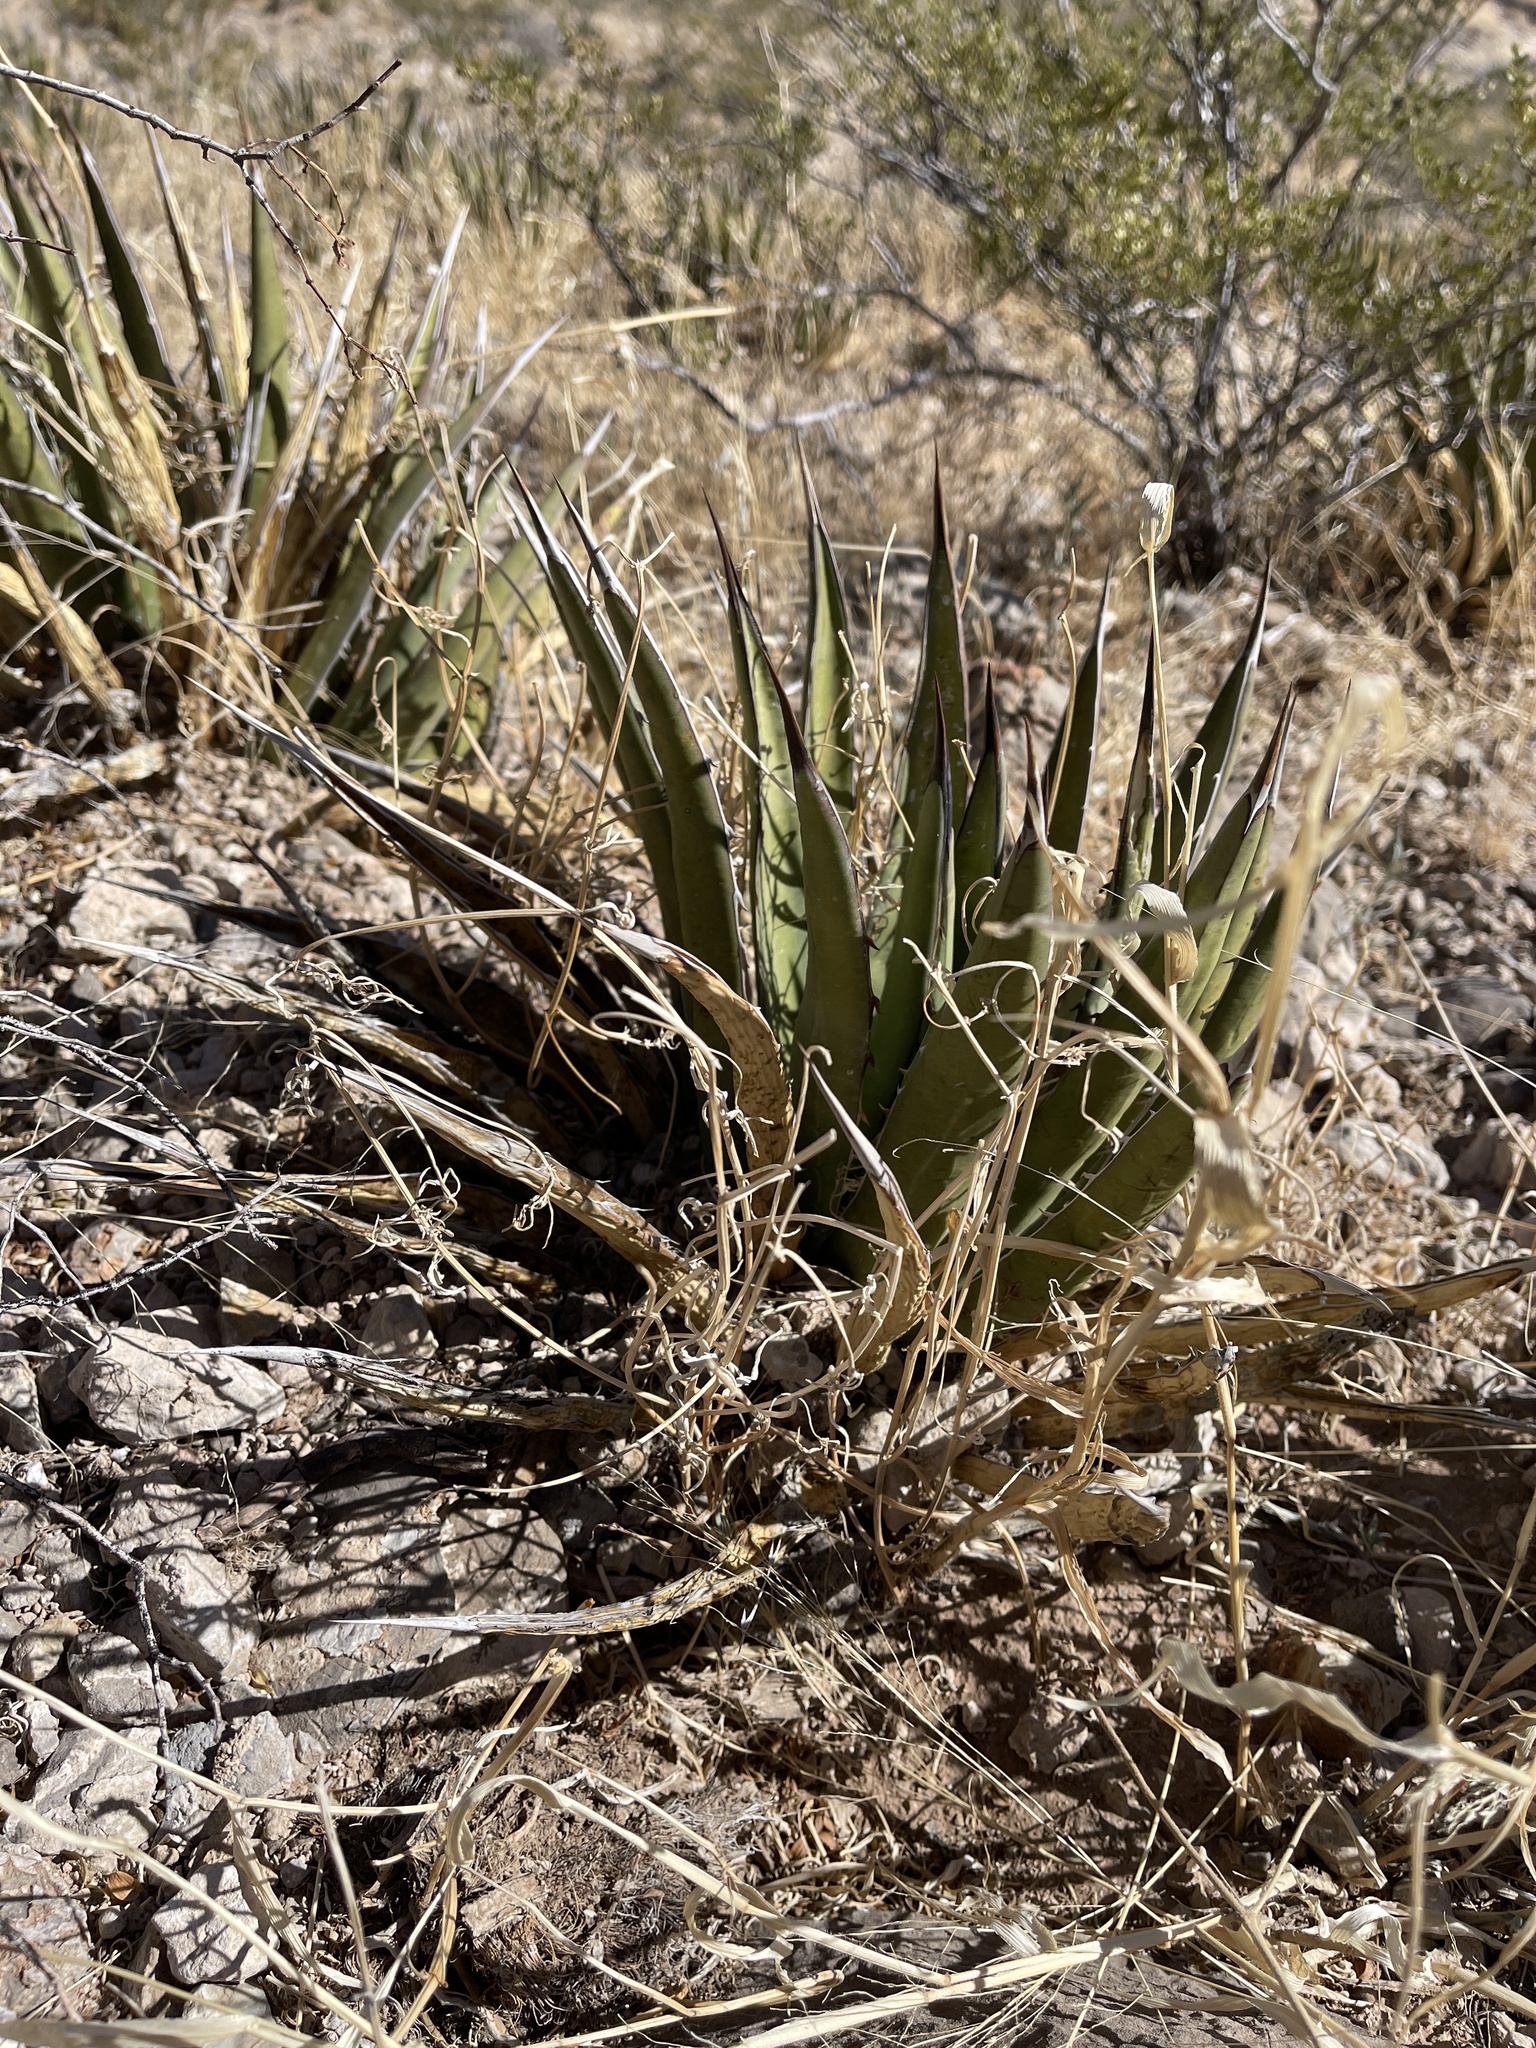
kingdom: Plantae
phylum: Tracheophyta
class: Liliopsida
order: Asparagales
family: Asparagaceae
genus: Agave
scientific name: Agave lechuguilla
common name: Lecheguilla agave
